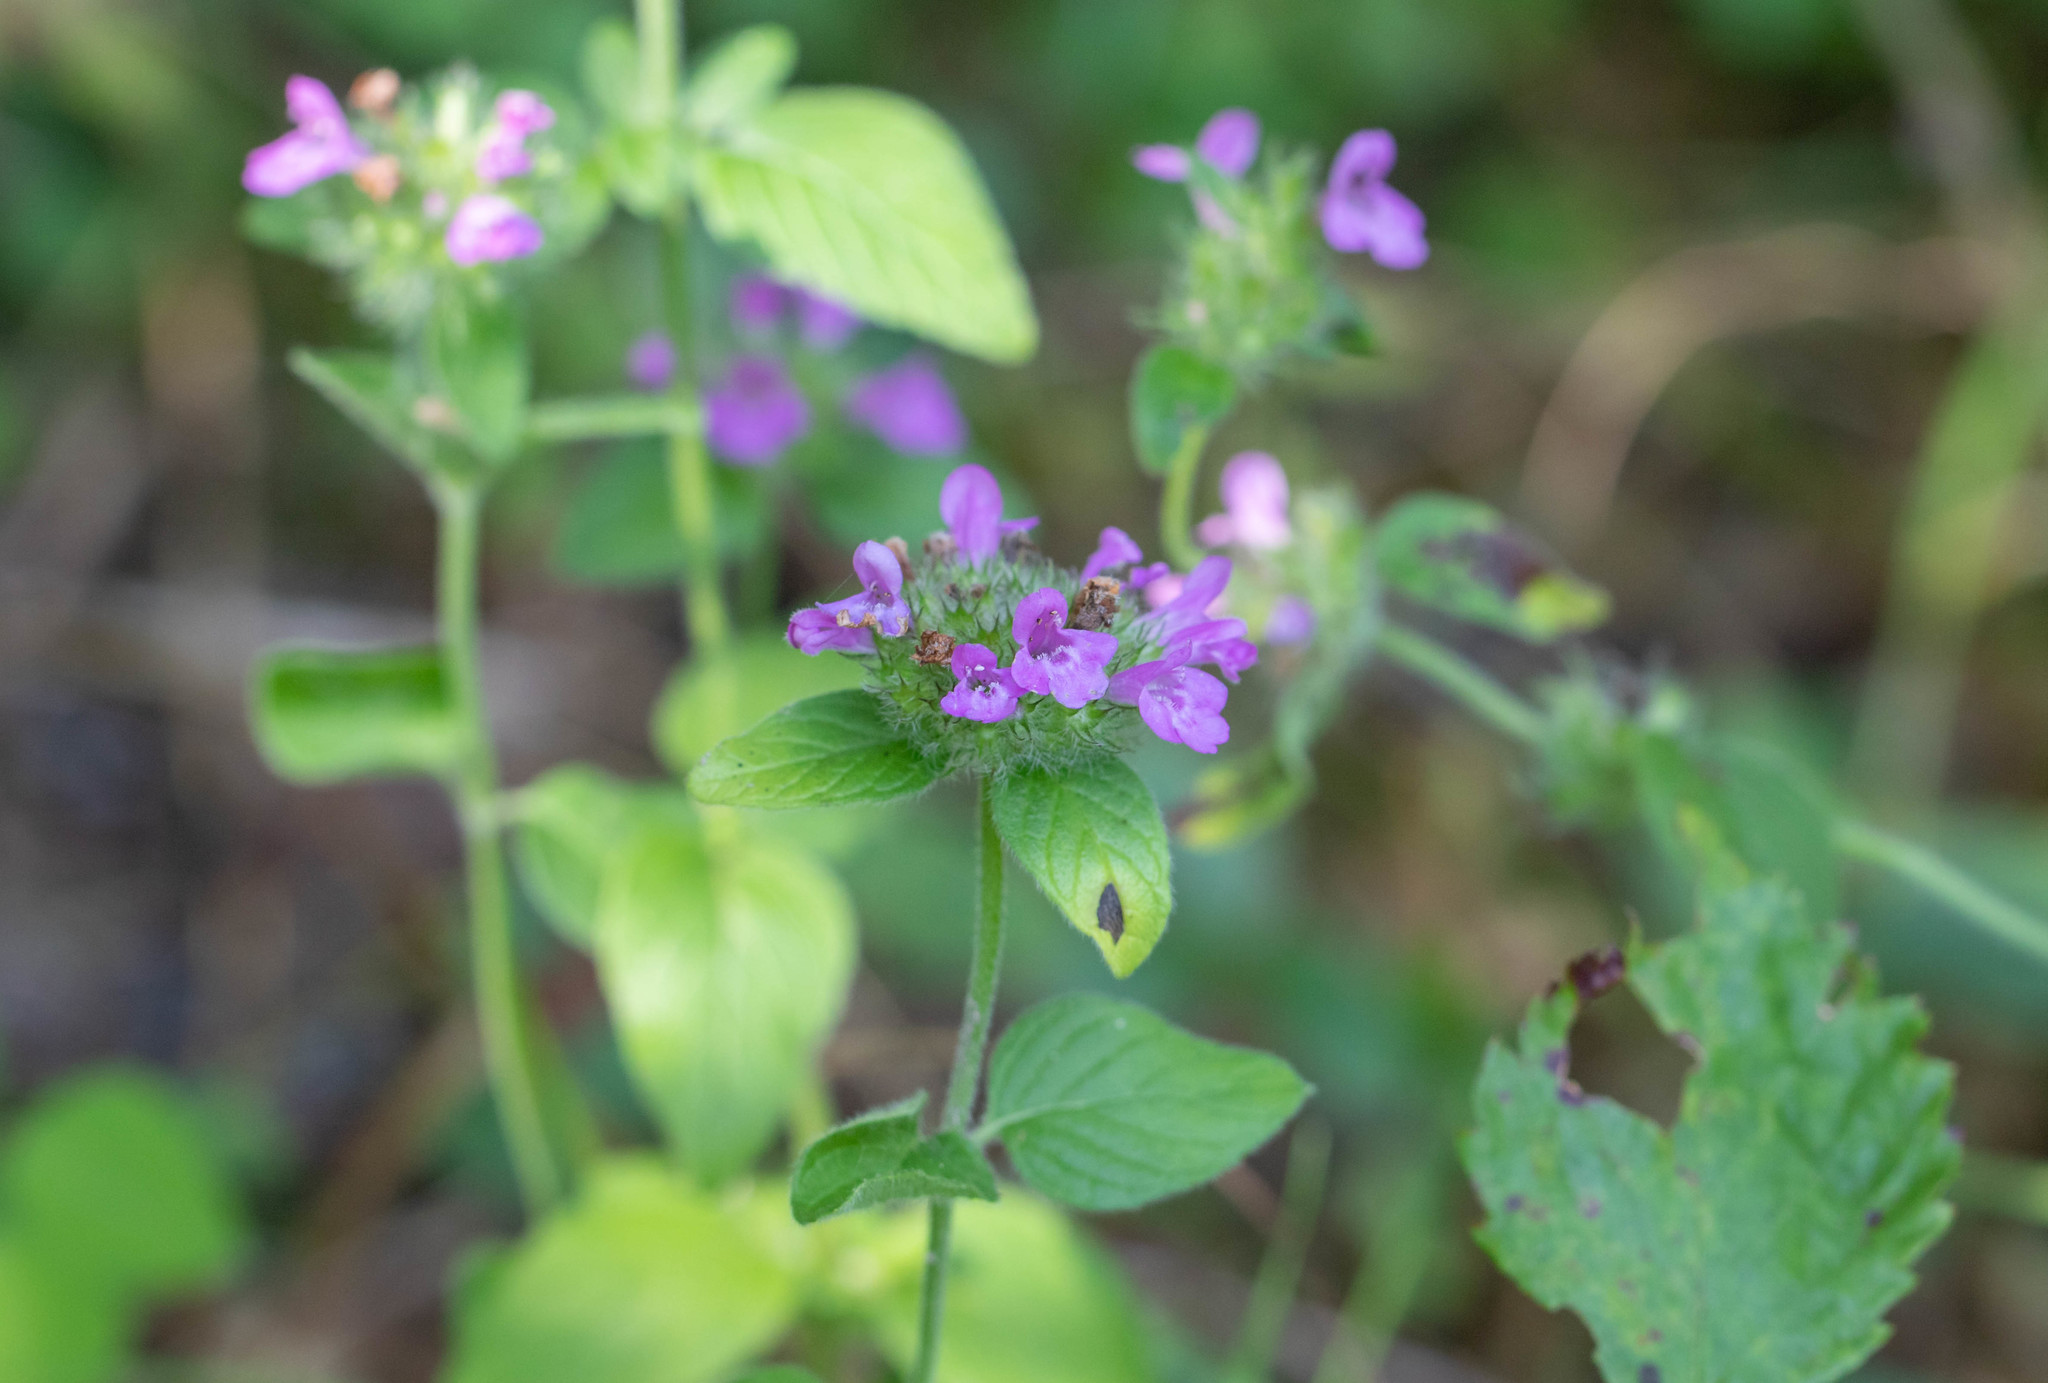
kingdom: Plantae
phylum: Tracheophyta
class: Magnoliopsida
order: Lamiales
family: Lamiaceae
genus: Clinopodium
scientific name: Clinopodium vulgare
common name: Wild basil
